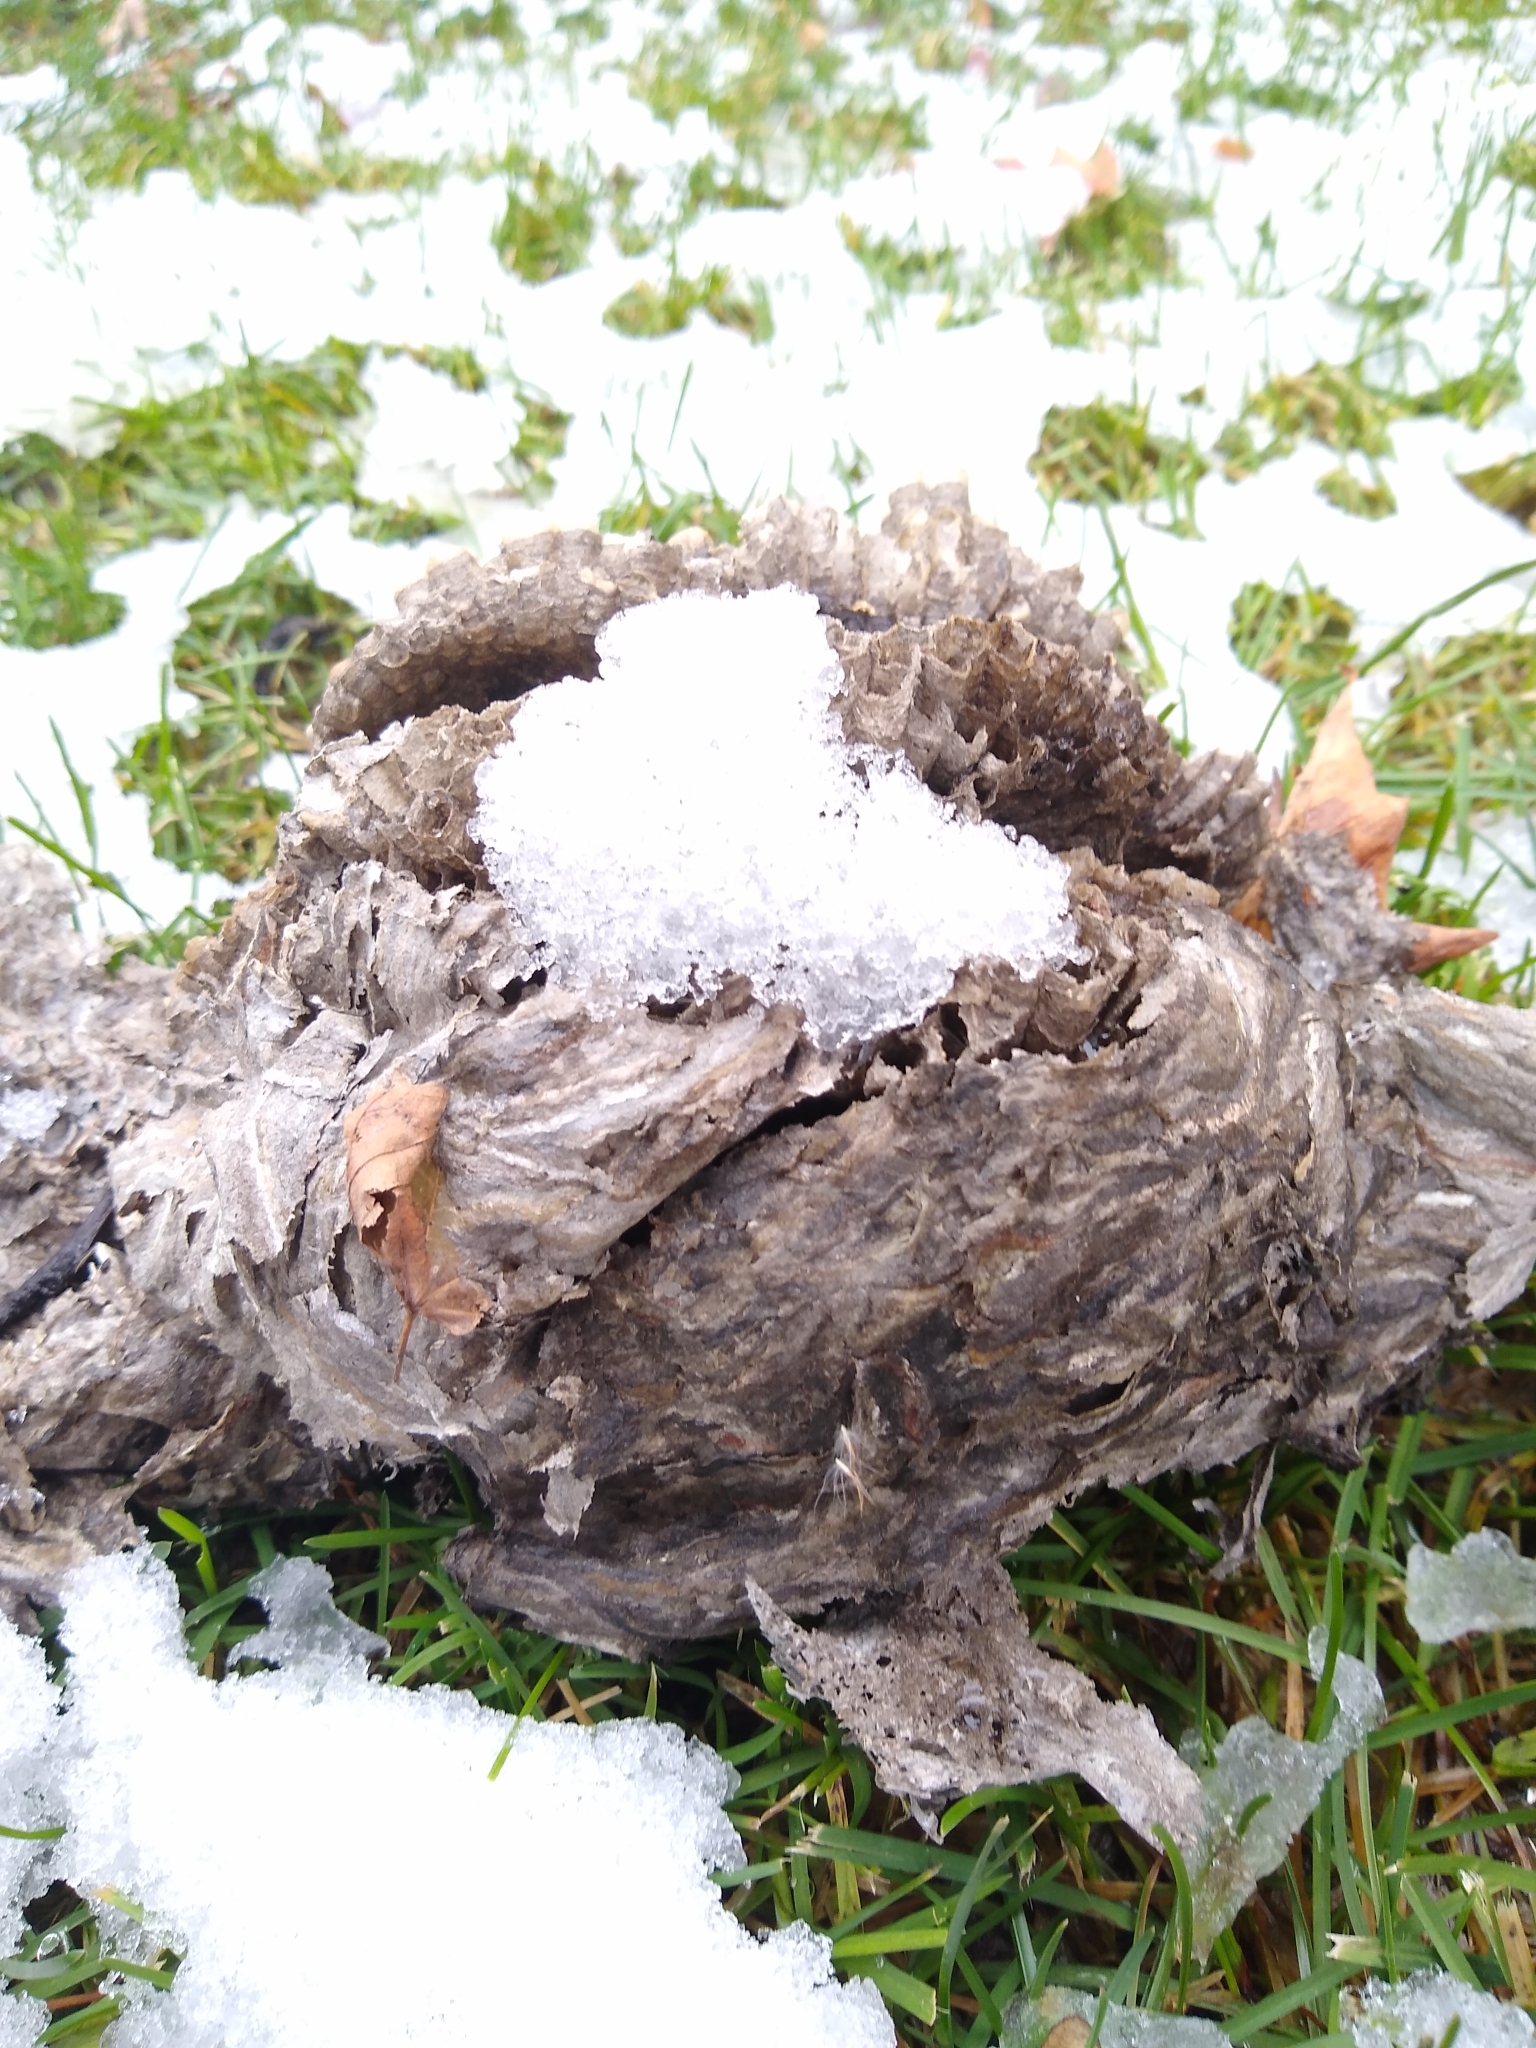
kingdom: Animalia
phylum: Arthropoda
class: Insecta
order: Hymenoptera
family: Vespidae
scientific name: Vespidae
